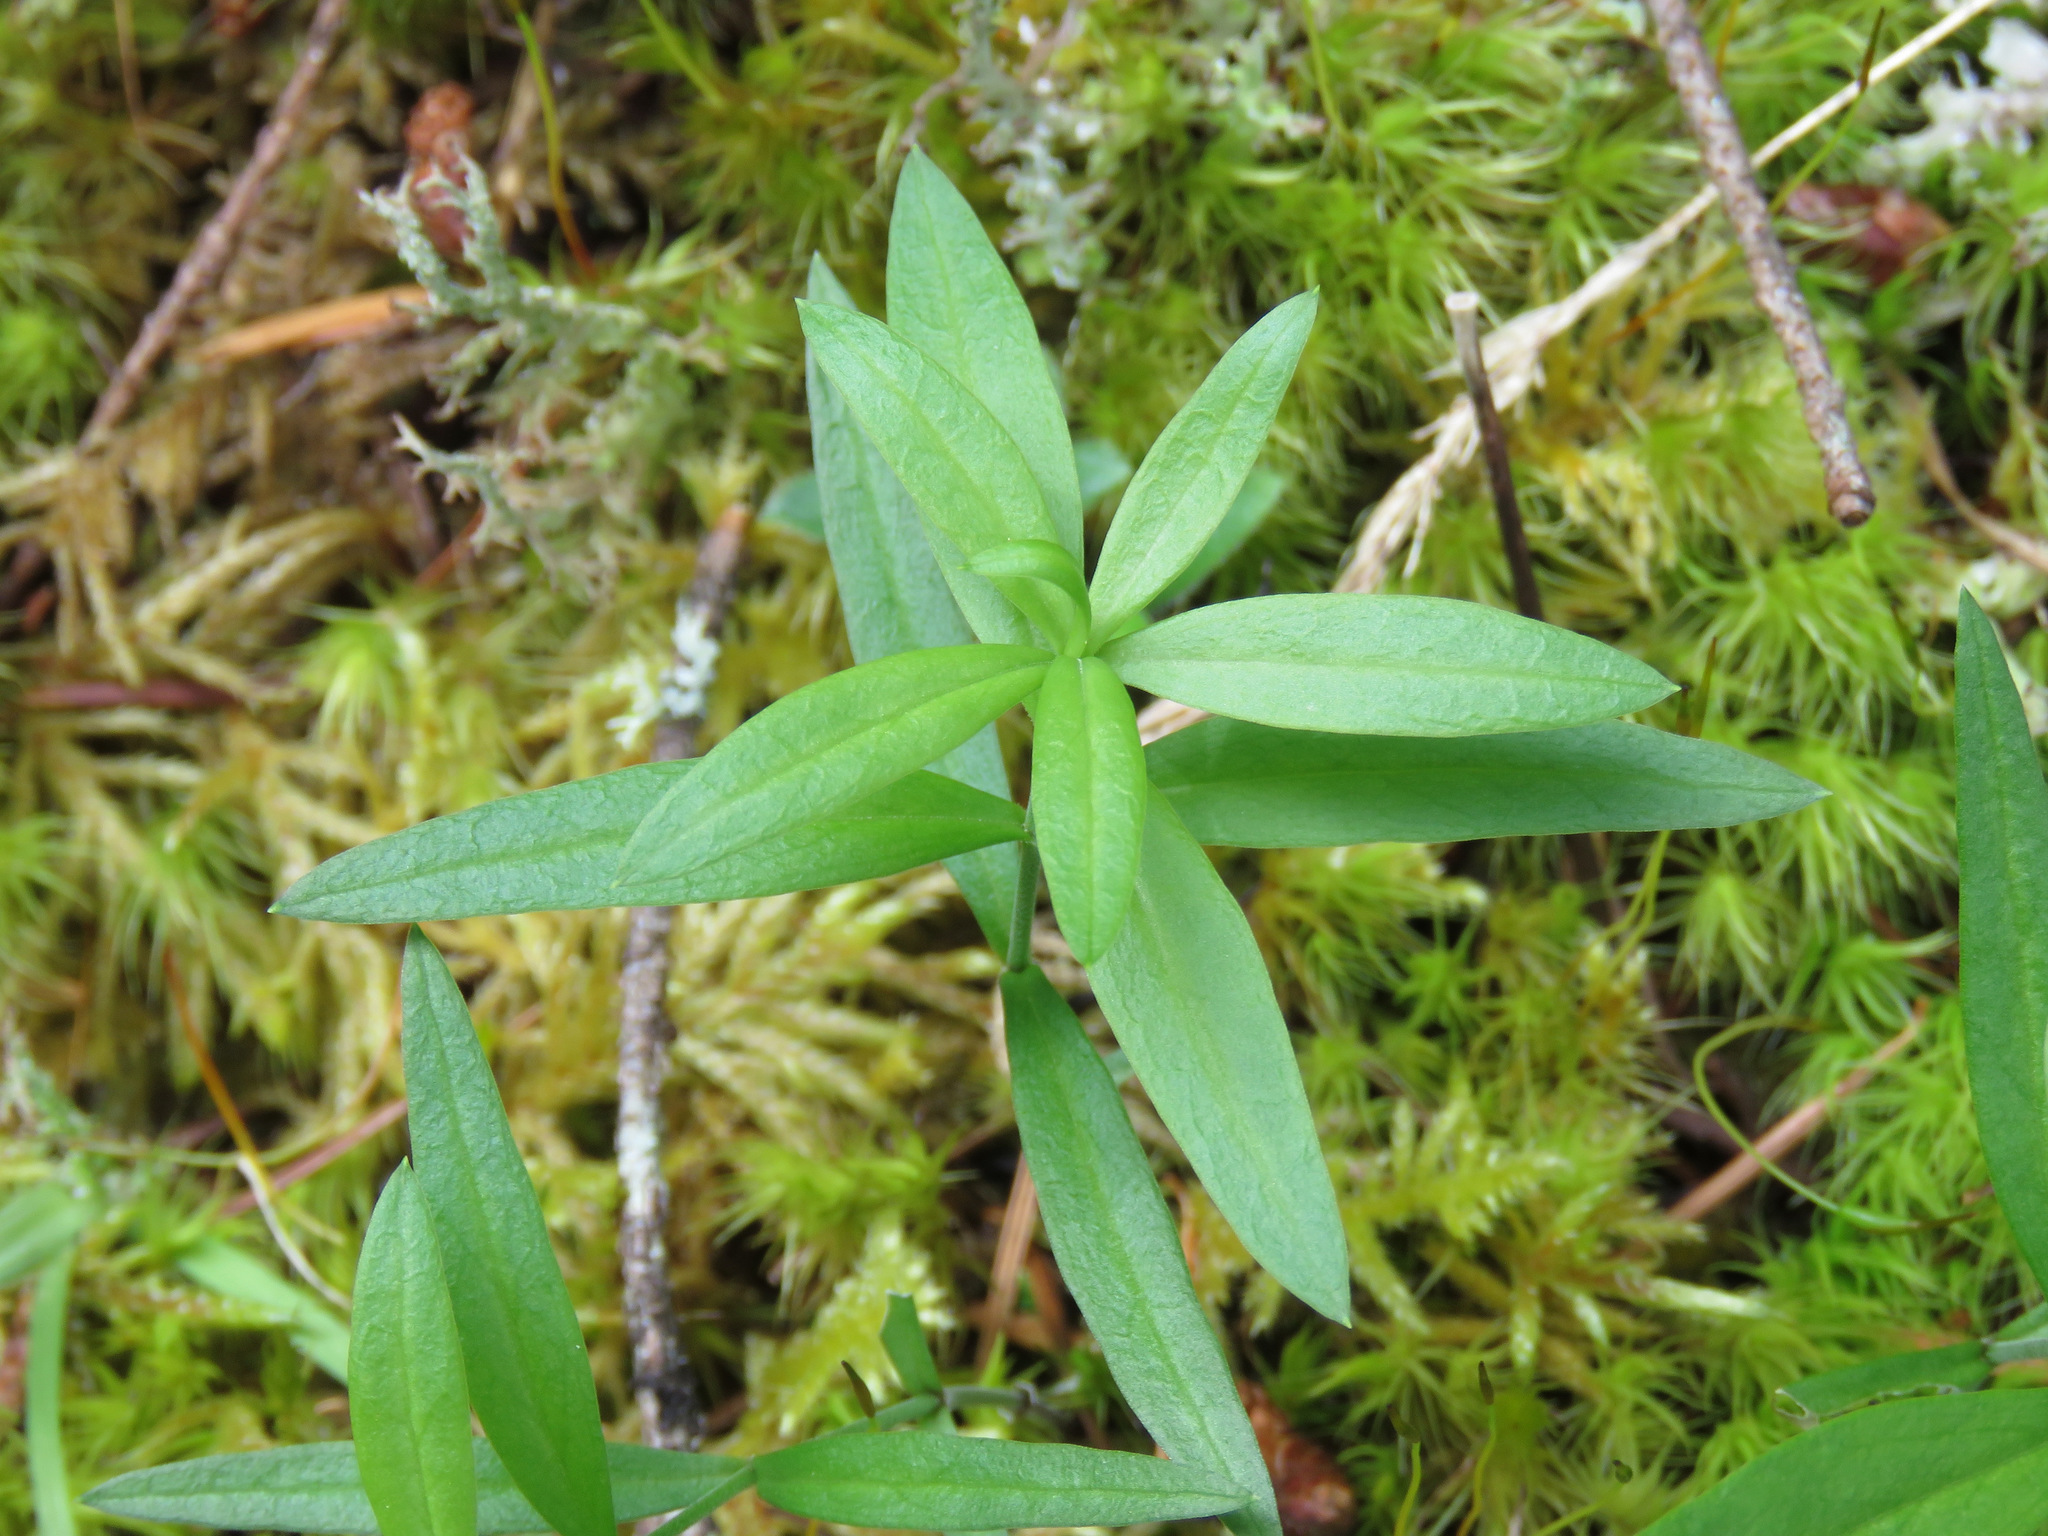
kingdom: Plantae
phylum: Tracheophyta
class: Magnoliopsida
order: Caryophyllales
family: Caryophyllaceae
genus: Moehringia
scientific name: Moehringia macrophylla
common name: Big-leaf sandwort
